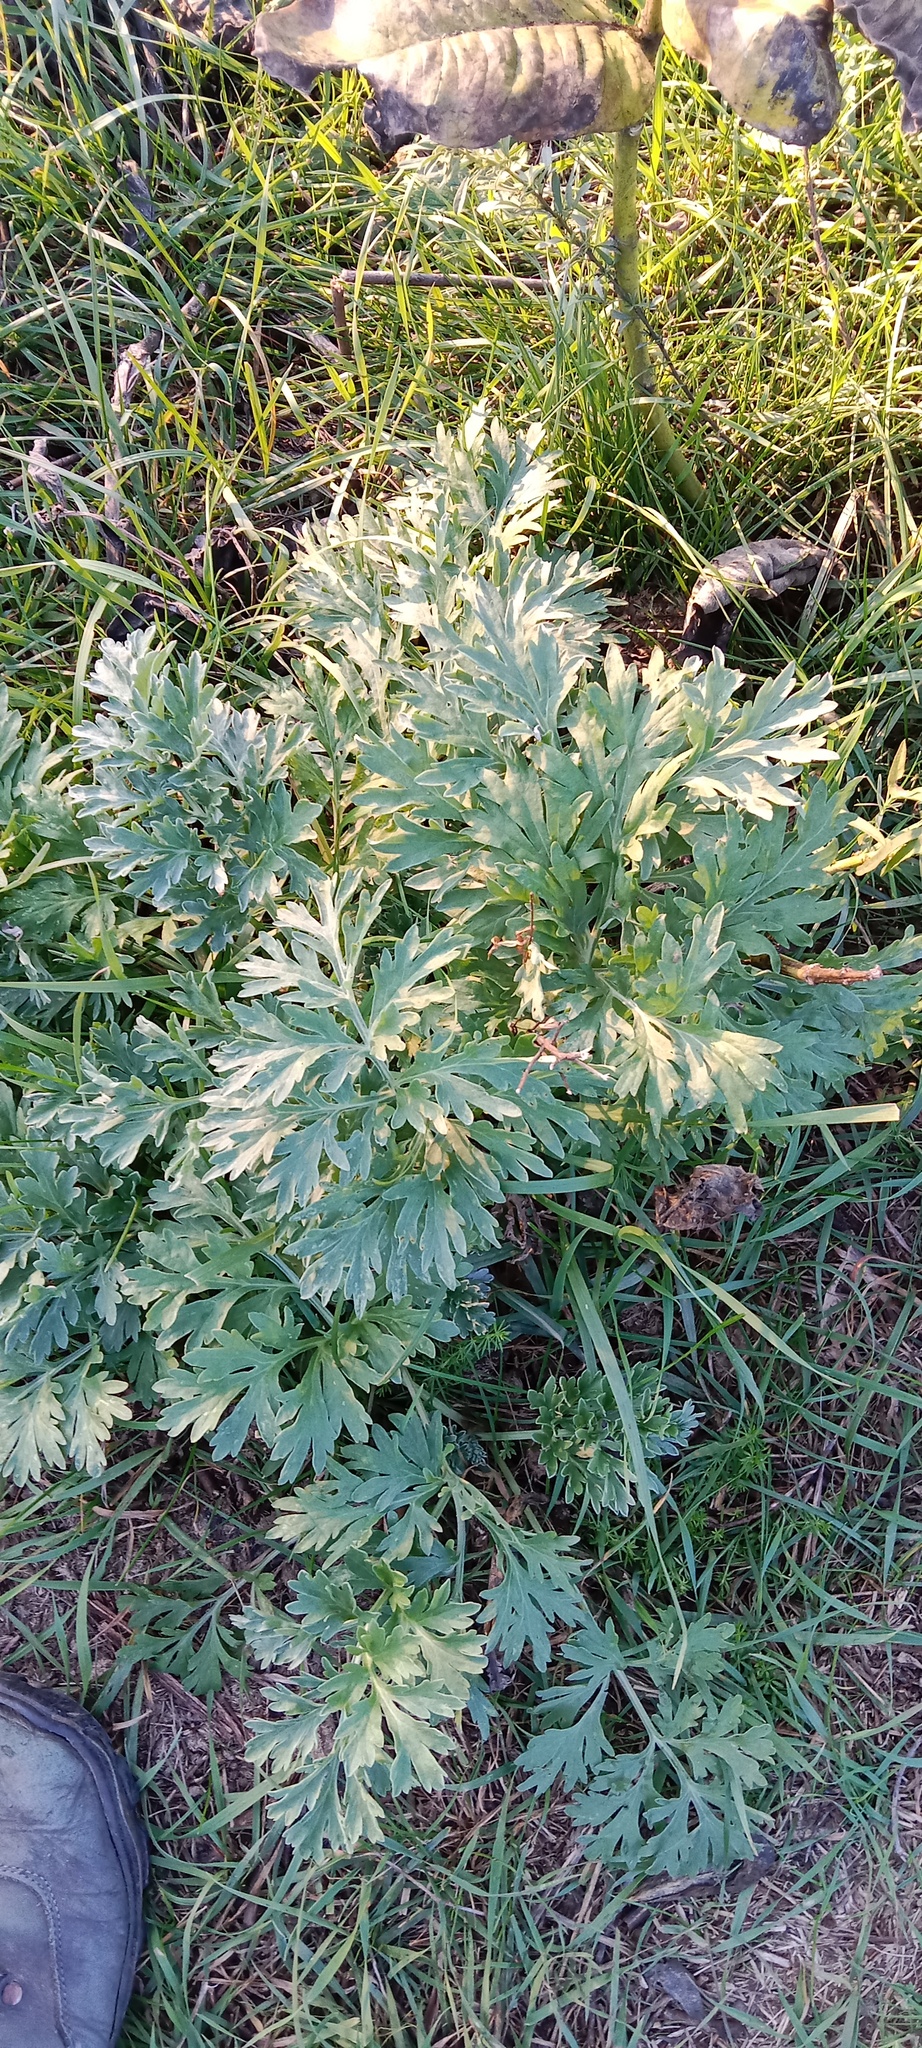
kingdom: Plantae
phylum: Tracheophyta
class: Magnoliopsida
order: Asterales
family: Asteraceae
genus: Artemisia
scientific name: Artemisia absinthium
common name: Wormwood
